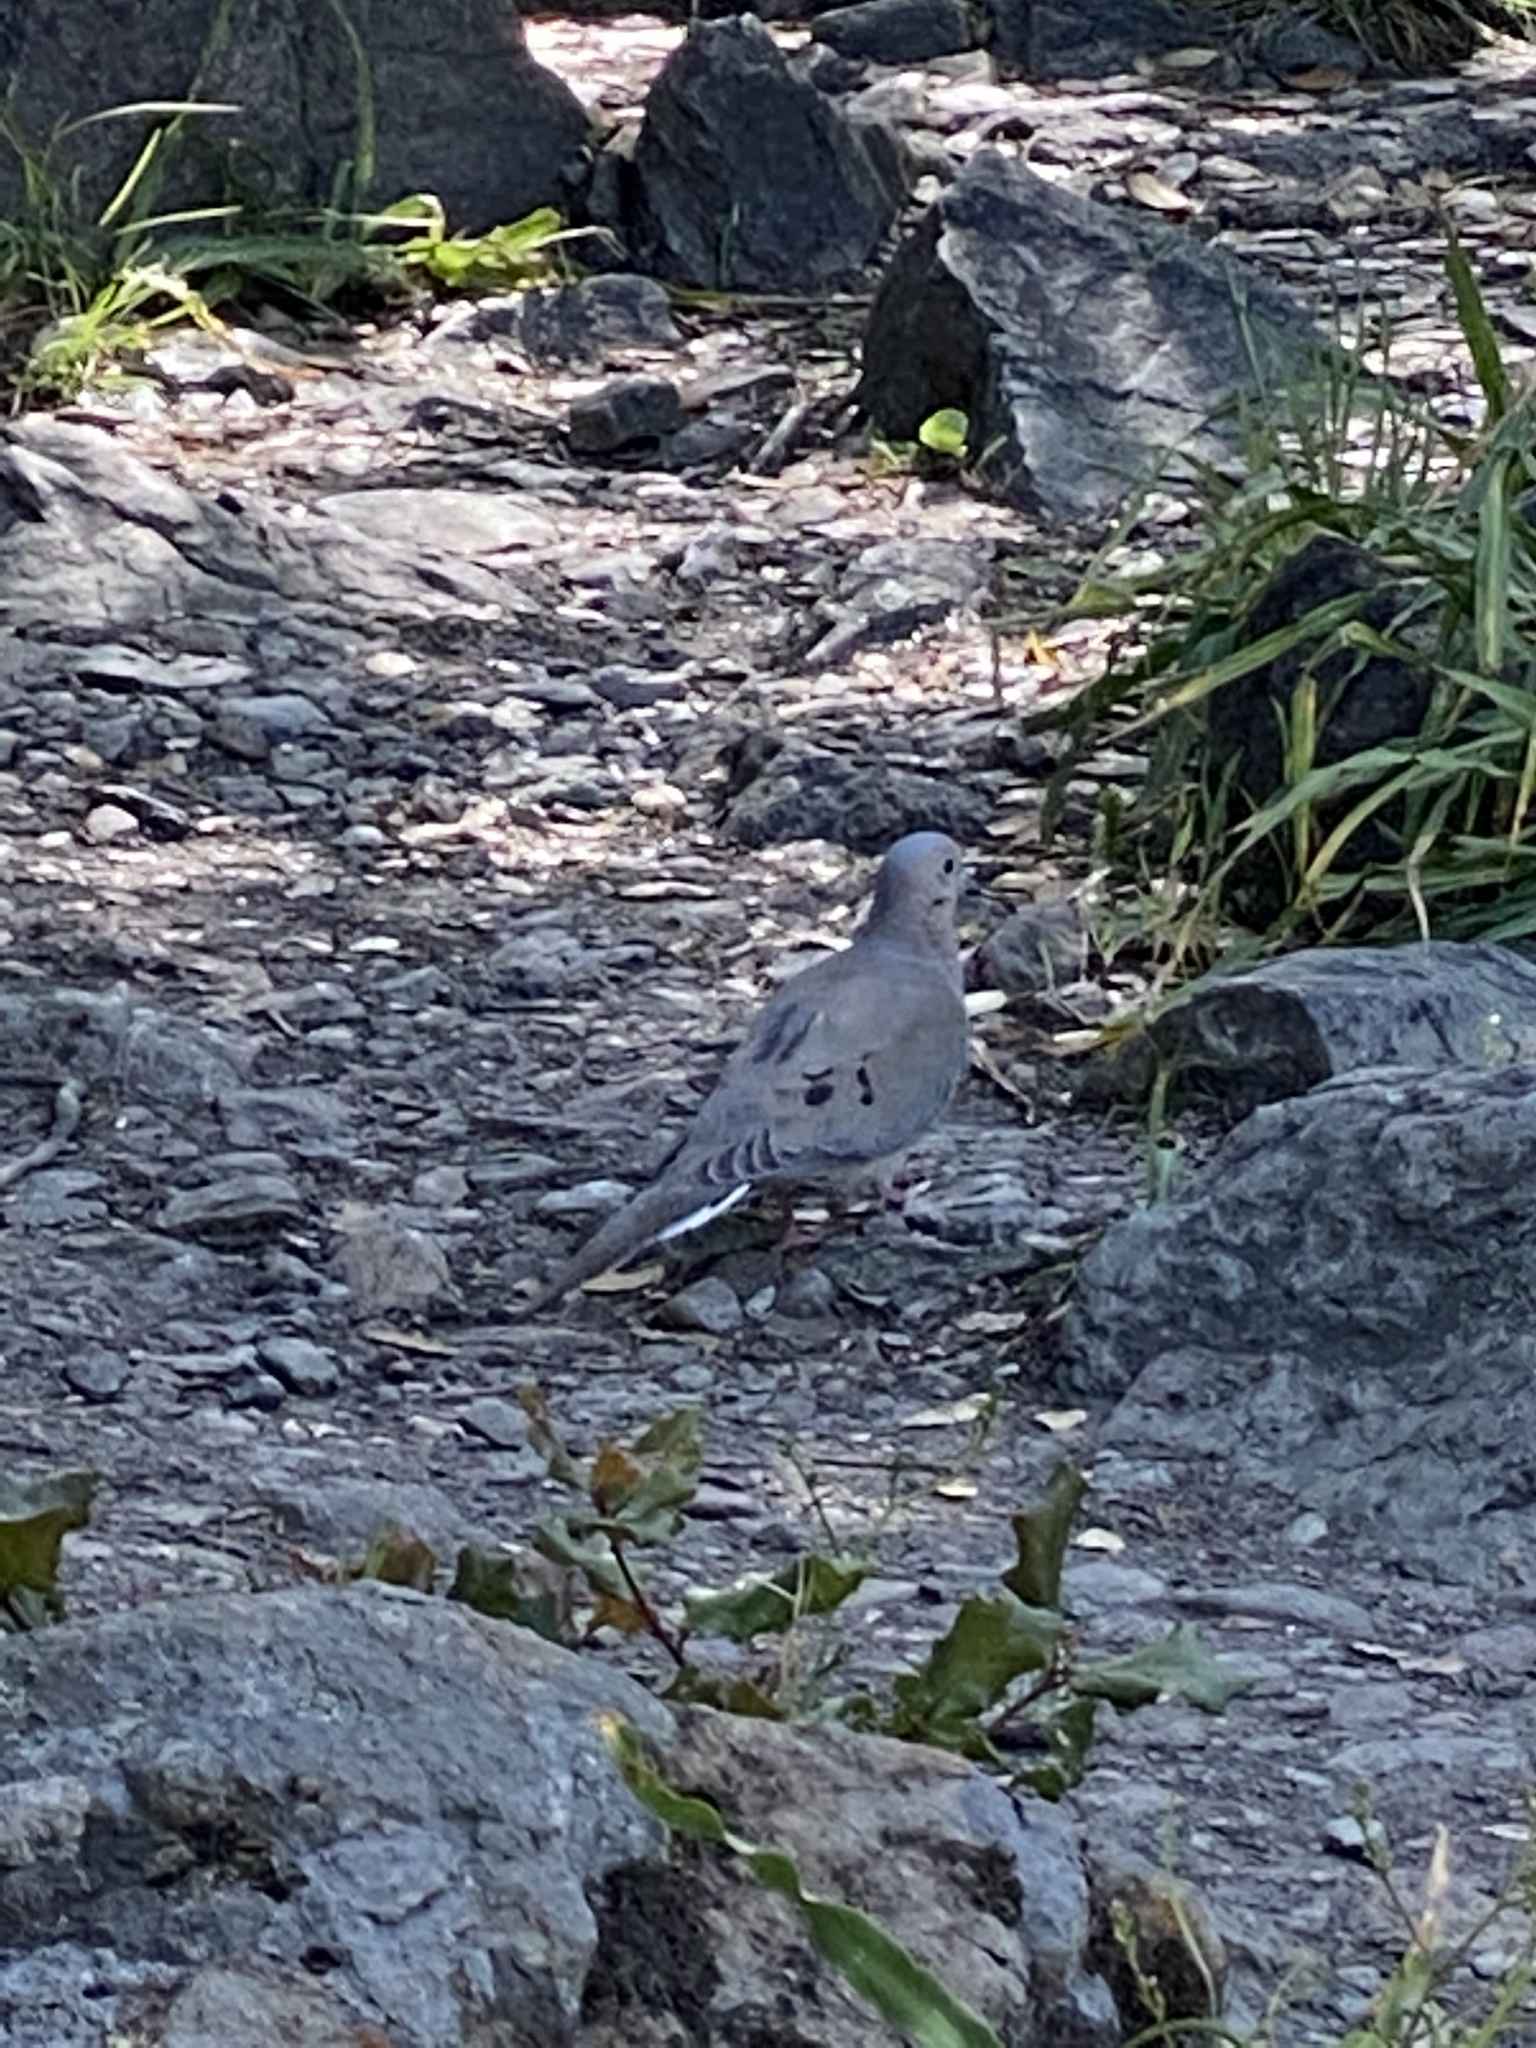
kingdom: Animalia
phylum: Chordata
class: Aves
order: Columbiformes
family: Columbidae
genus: Zenaida
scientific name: Zenaida macroura
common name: Mourning dove
